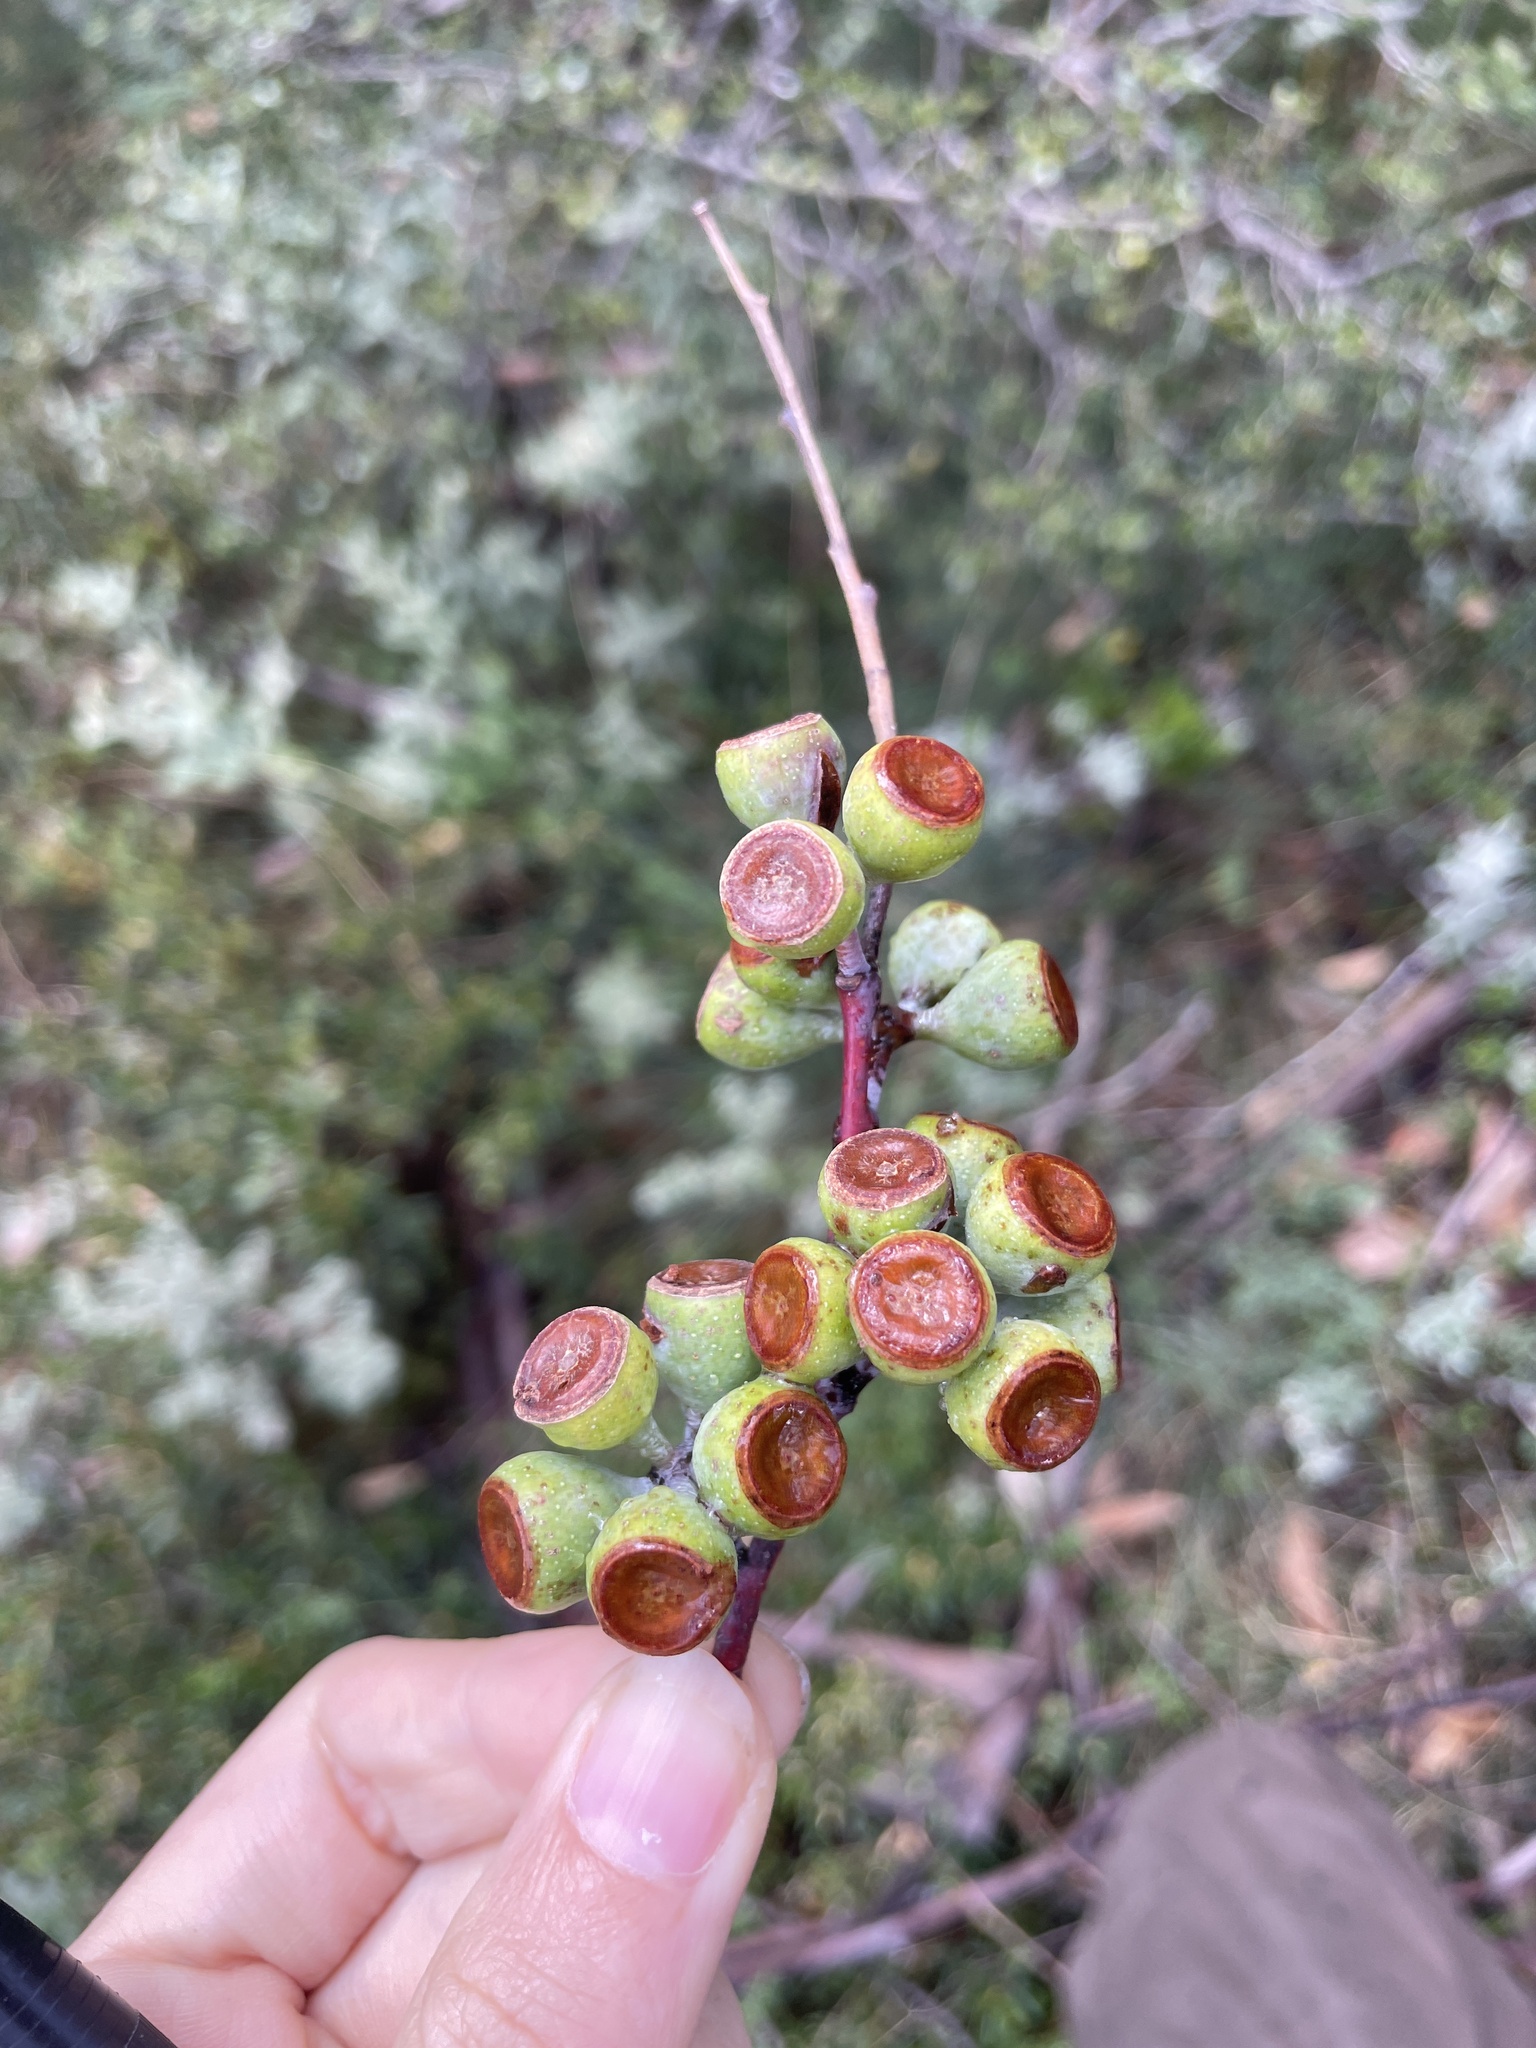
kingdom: Plantae
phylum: Tracheophyta
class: Magnoliopsida
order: Myrtales
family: Myrtaceae
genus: Eucalyptus
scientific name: Eucalyptus pauciflora
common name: Snow gum
